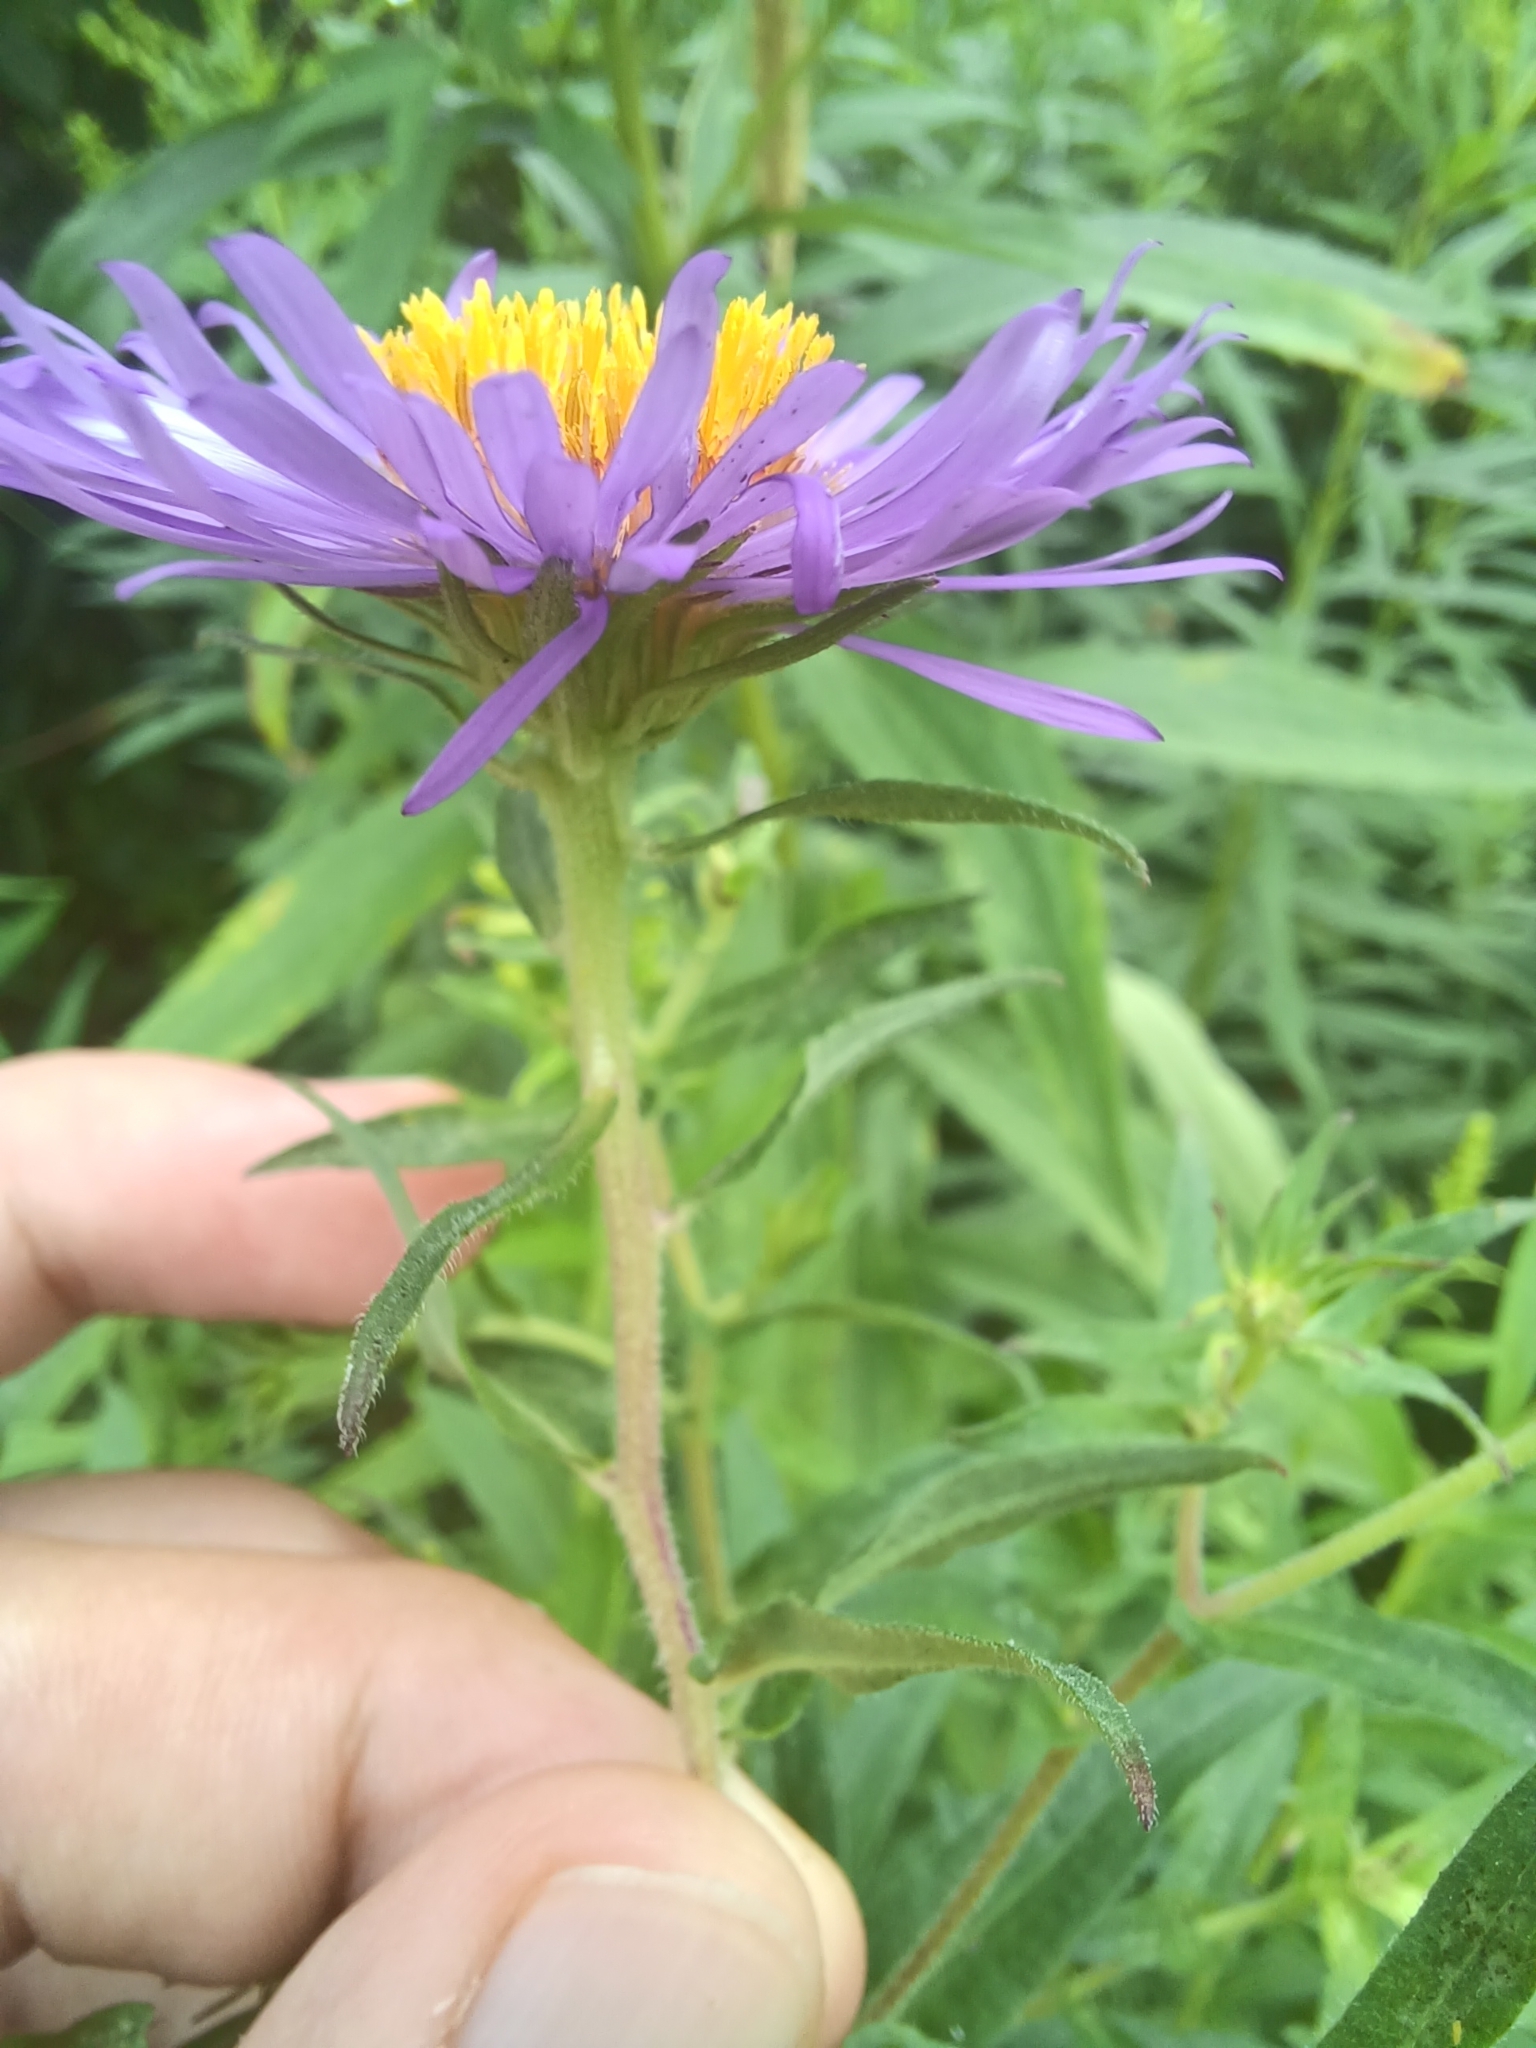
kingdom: Plantae
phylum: Tracheophyta
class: Magnoliopsida
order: Asterales
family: Asteraceae
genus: Symphyotrichum
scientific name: Symphyotrichum novae-angliae
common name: Michaelmas daisy
